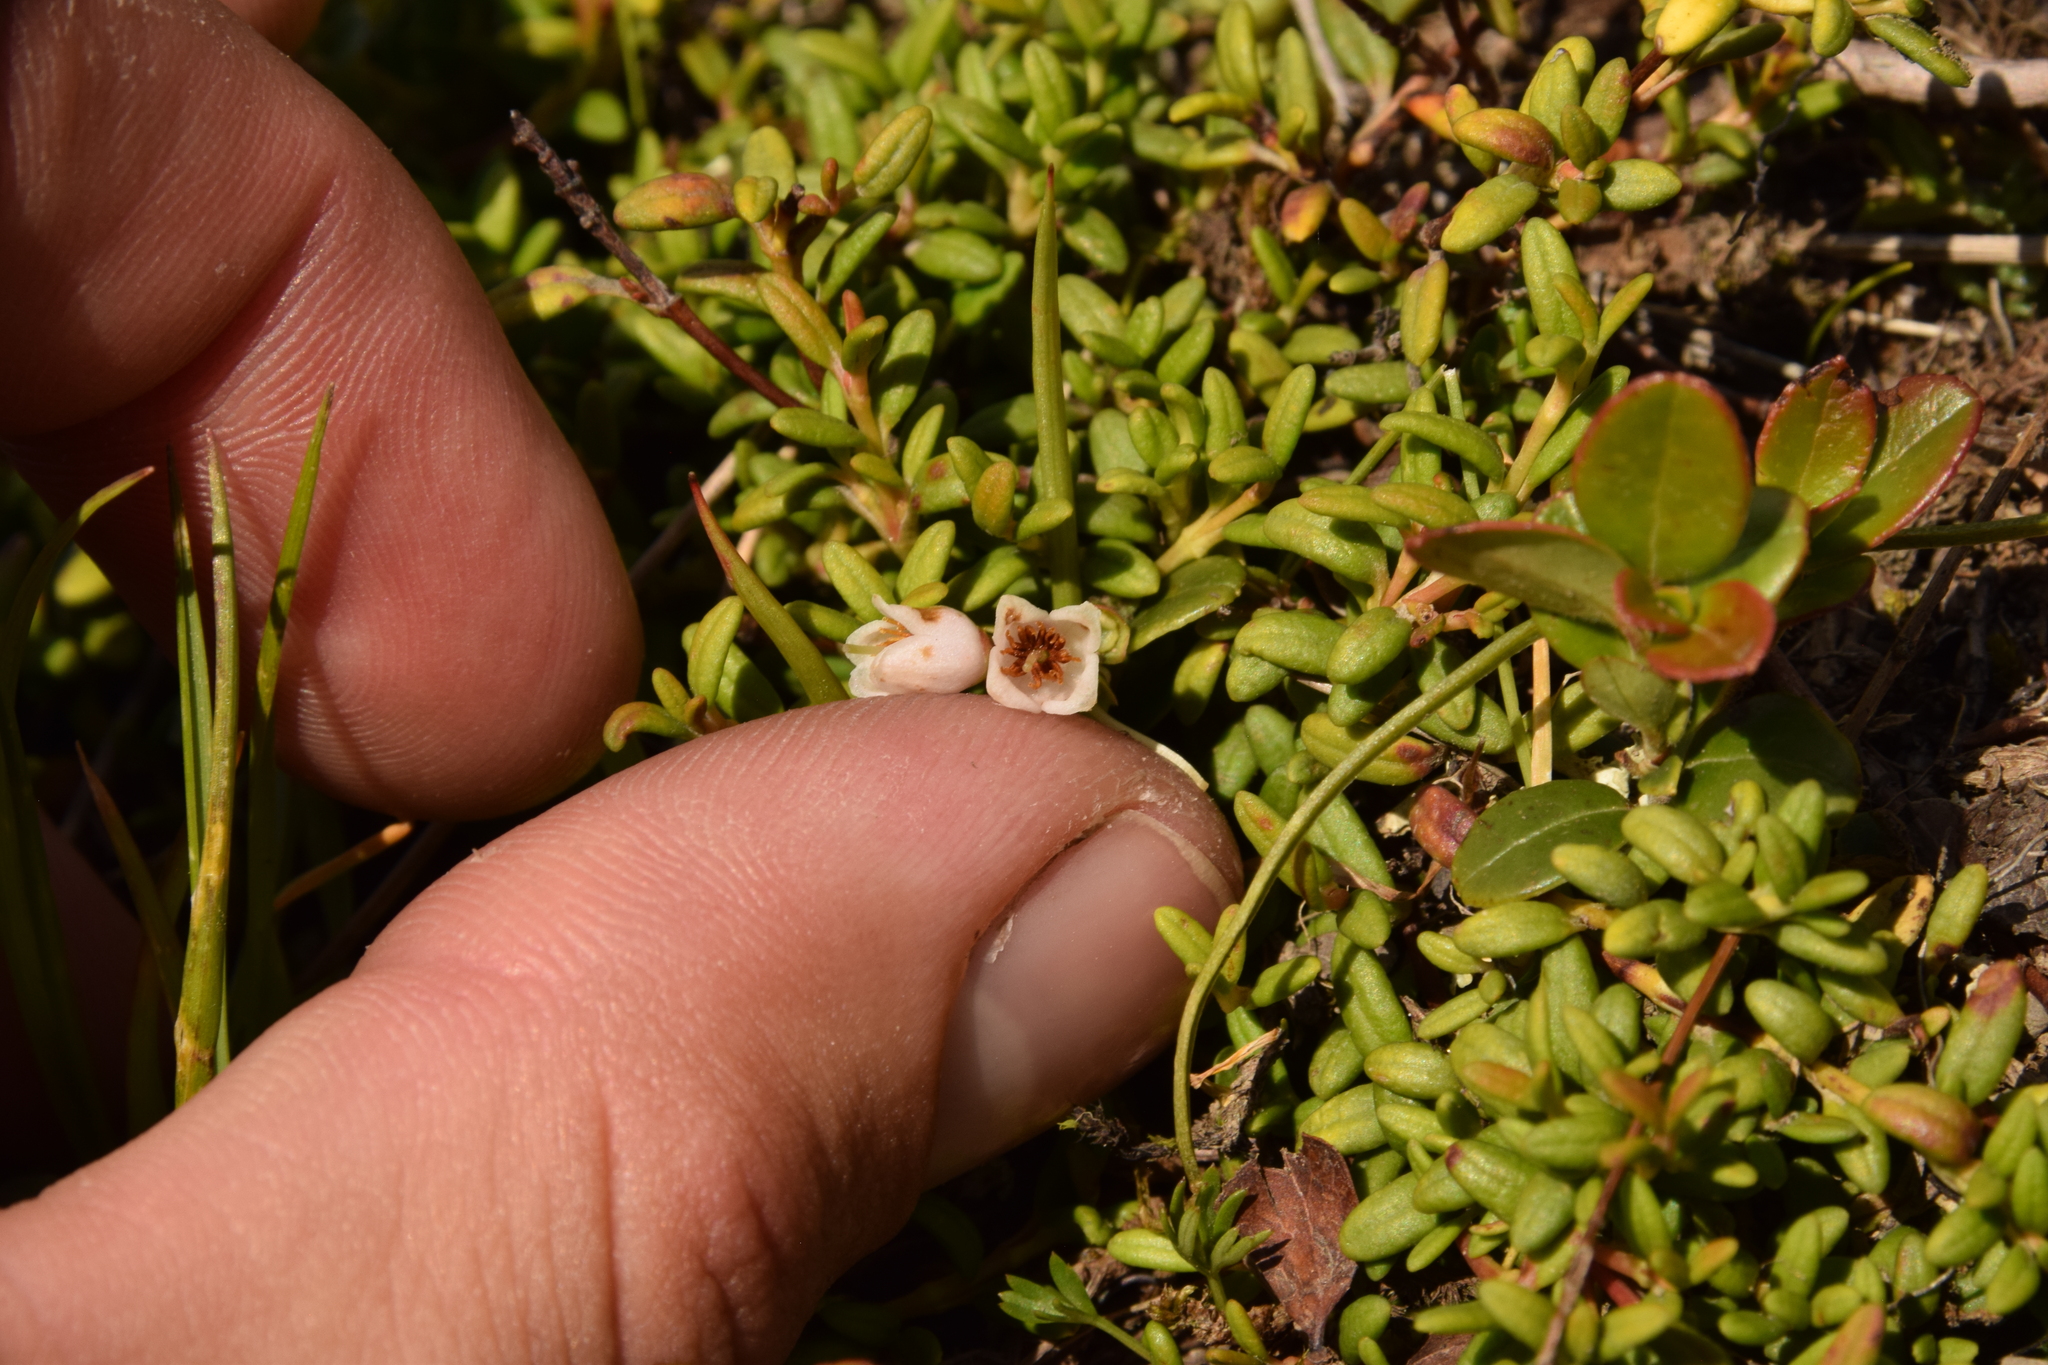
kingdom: Plantae
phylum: Tracheophyta
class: Magnoliopsida
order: Ericales
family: Ericaceae
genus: Kalmia
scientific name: Kalmia procumbens
